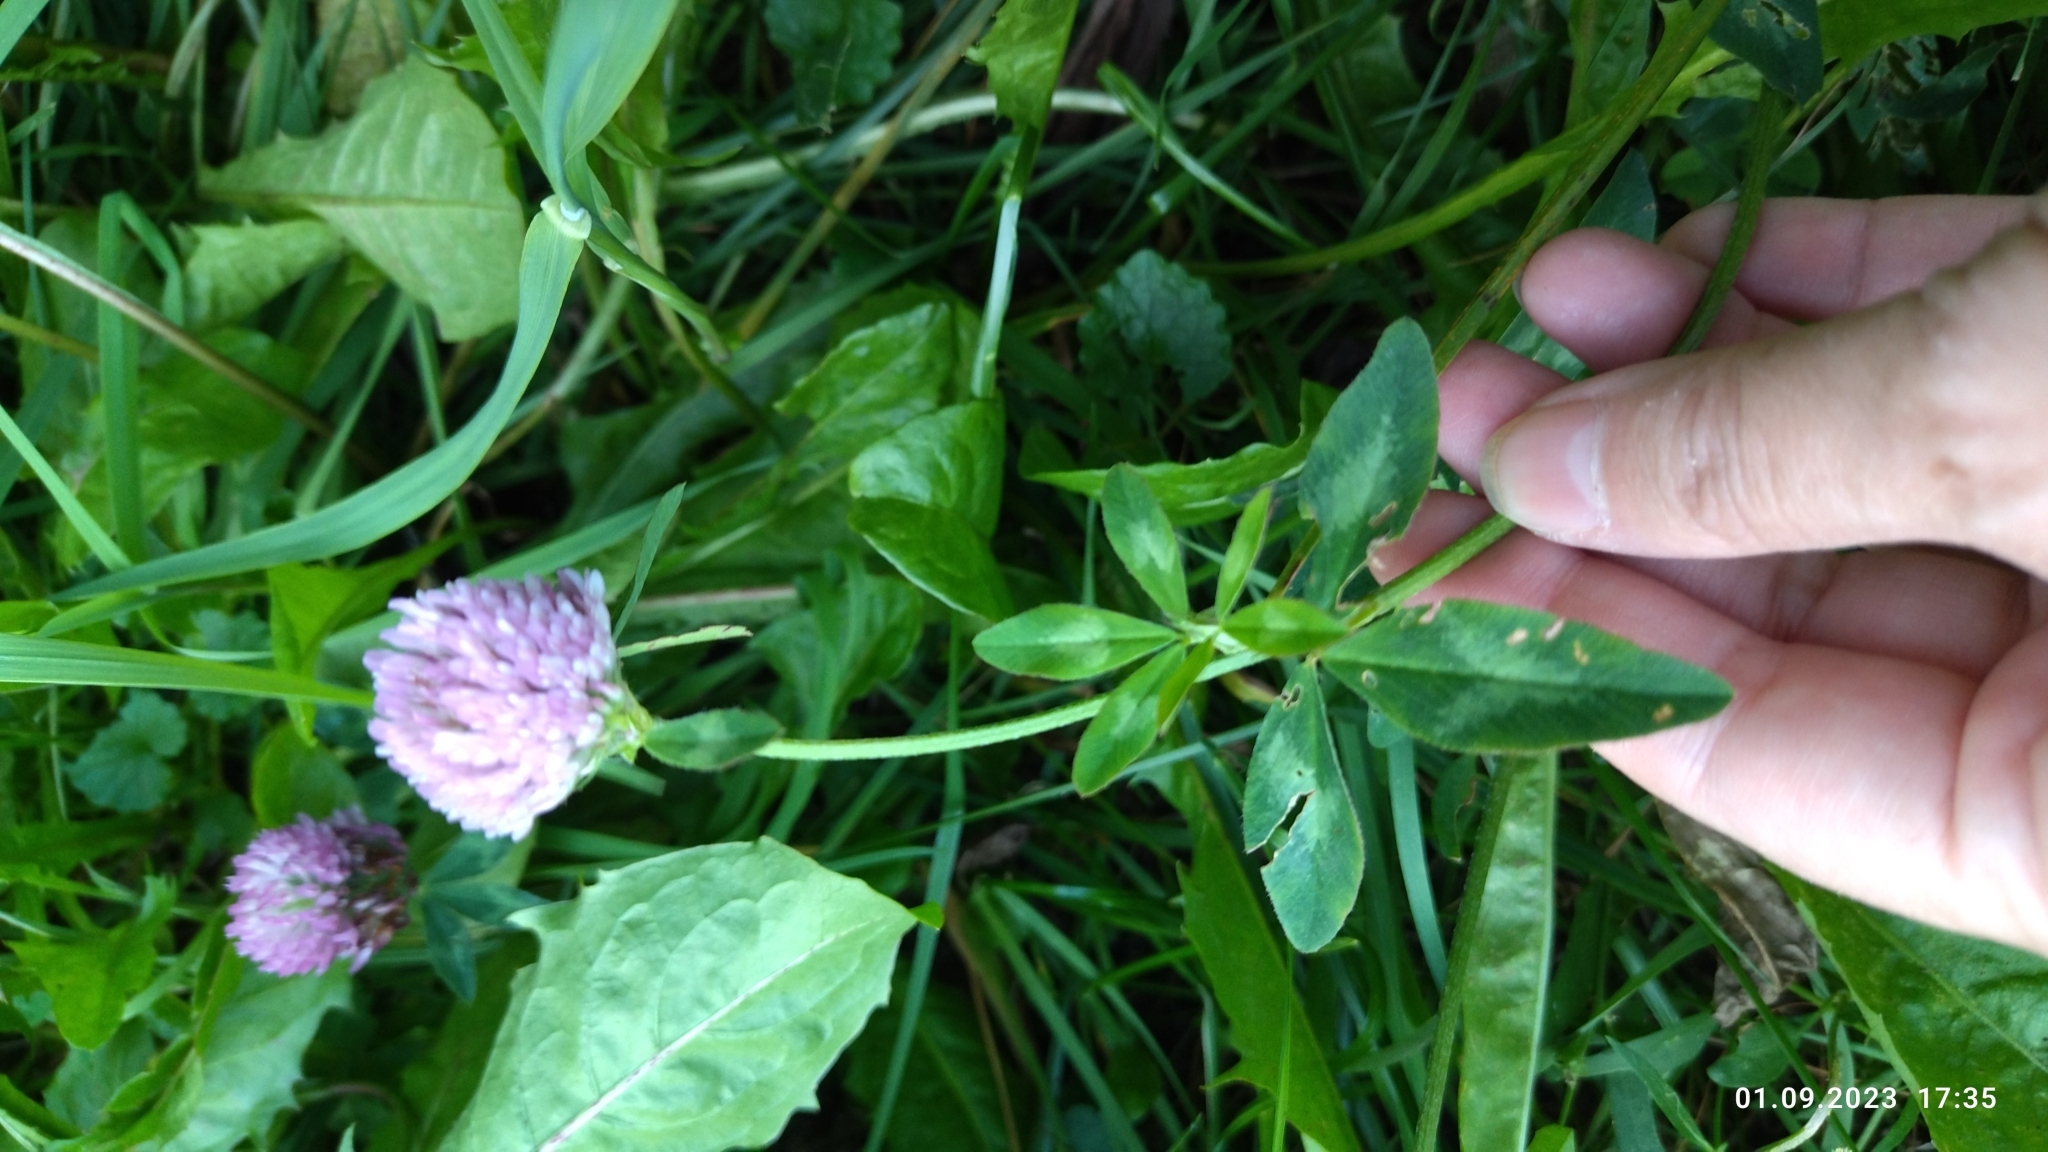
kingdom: Plantae
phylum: Tracheophyta
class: Magnoliopsida
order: Fabales
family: Fabaceae
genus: Trifolium
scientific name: Trifolium pratense
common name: Red clover
